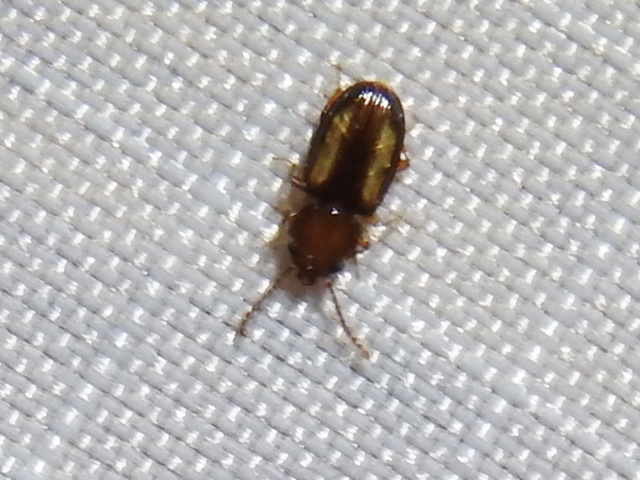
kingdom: Animalia
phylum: Arthropoda
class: Insecta
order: Coleoptera
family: Laemophloeidae
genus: Laemophloeus
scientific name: Laemophloeus terminalis
